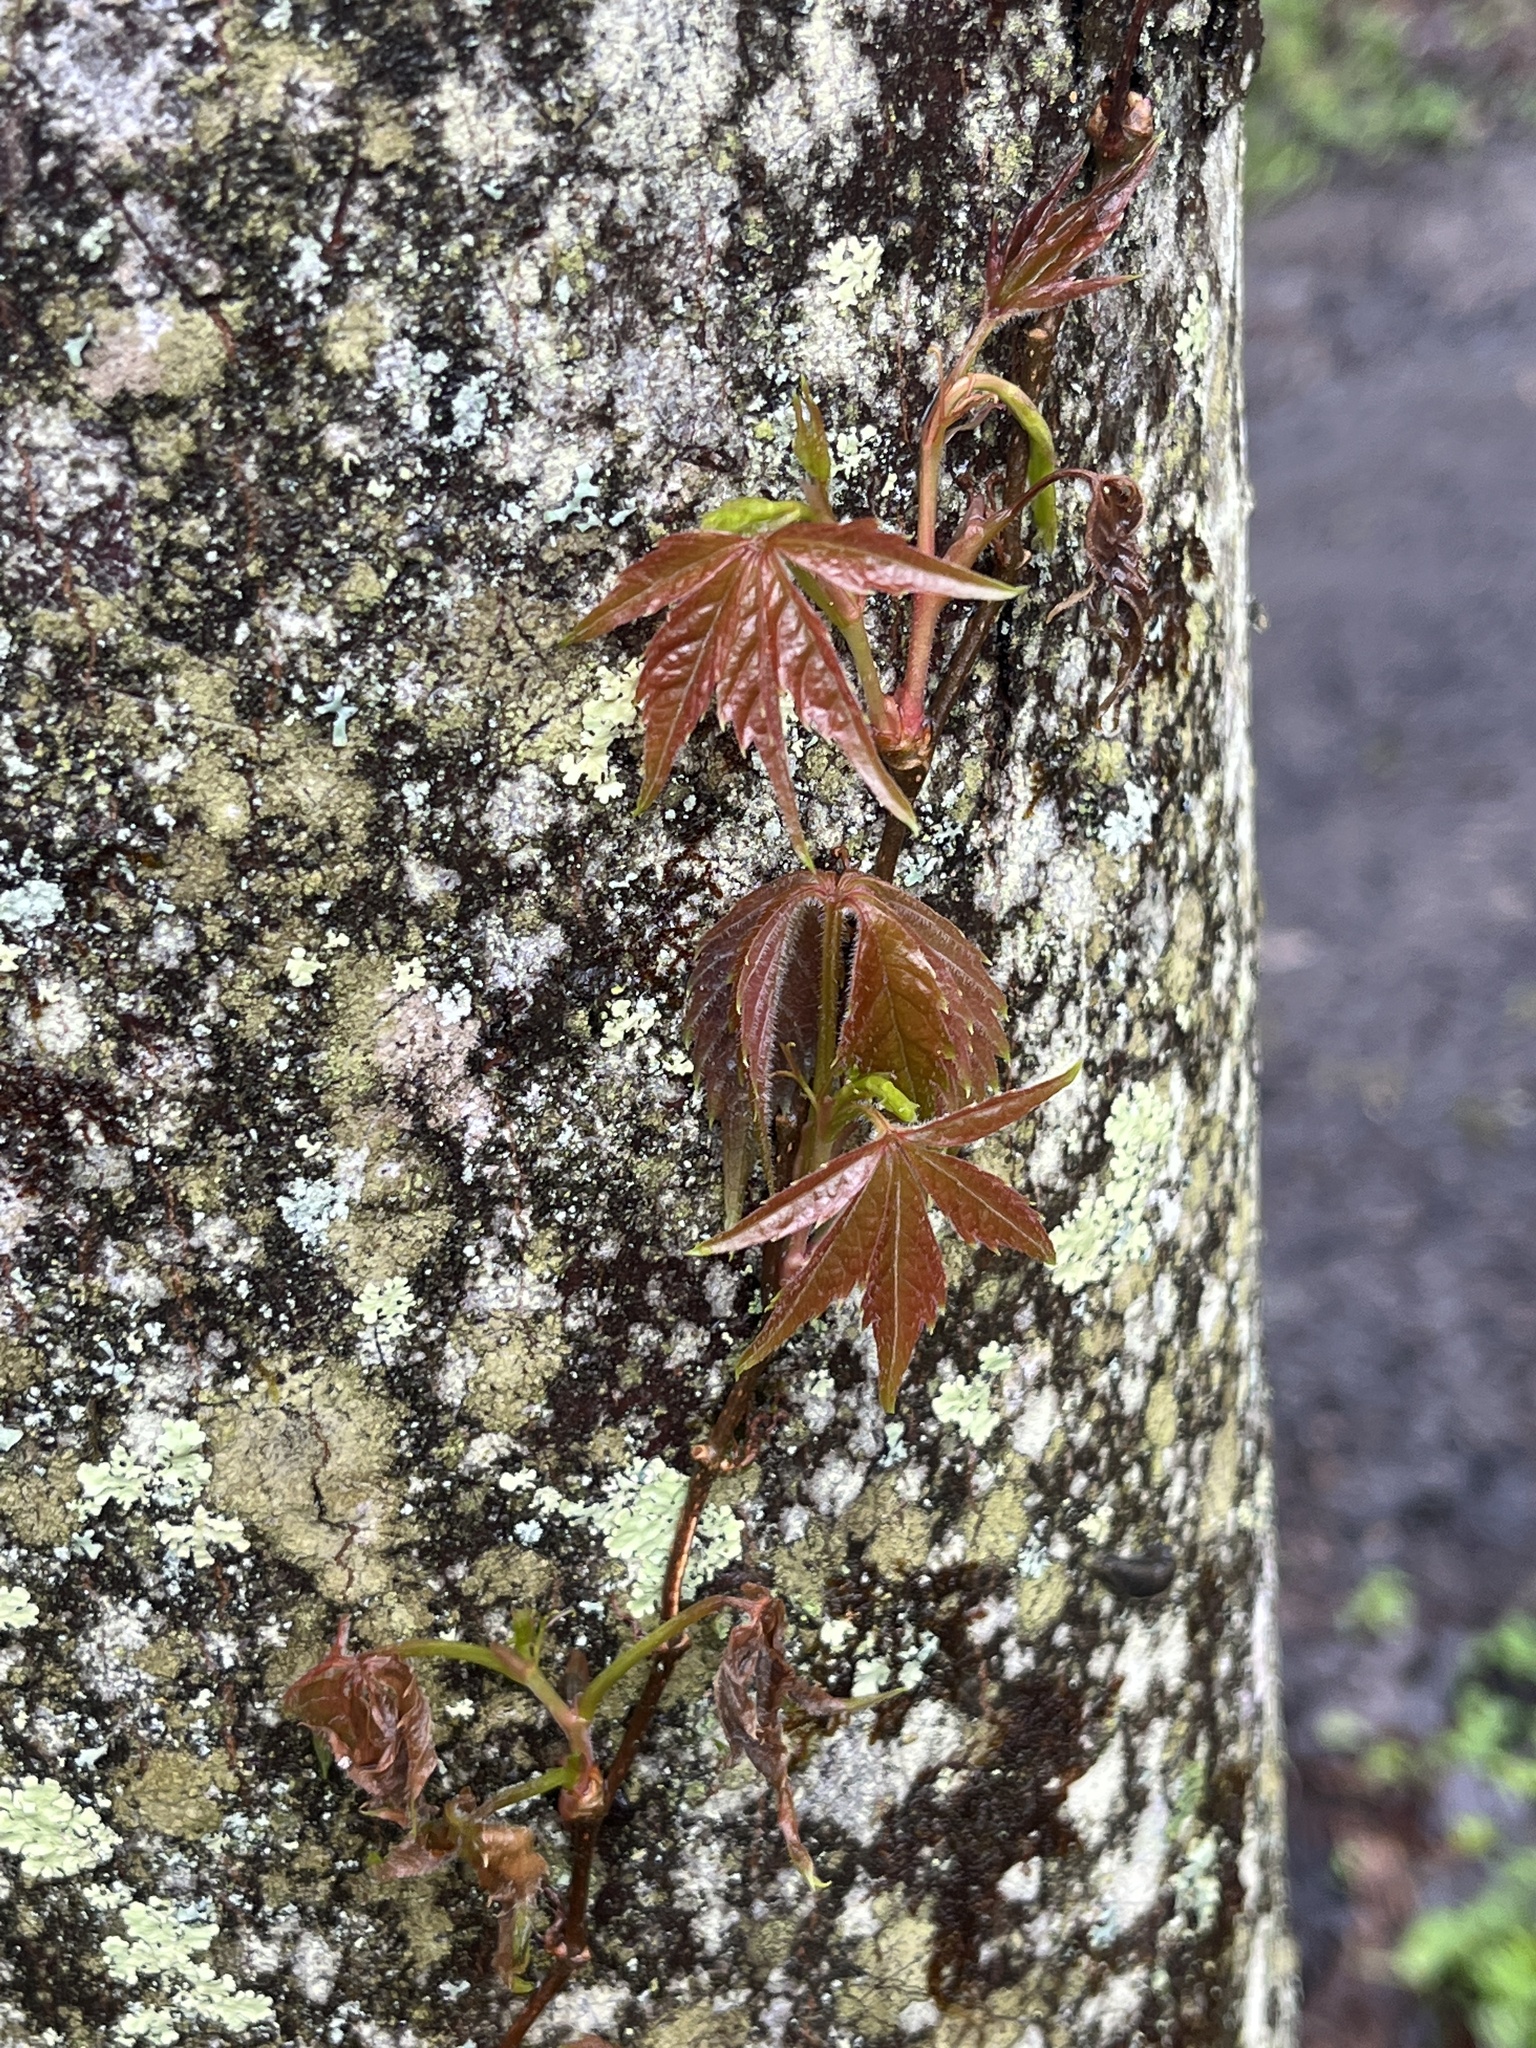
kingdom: Plantae
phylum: Tracheophyta
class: Magnoliopsida
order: Vitales
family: Vitaceae
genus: Parthenocissus
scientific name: Parthenocissus quinquefolia
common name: Virginia-creeper
